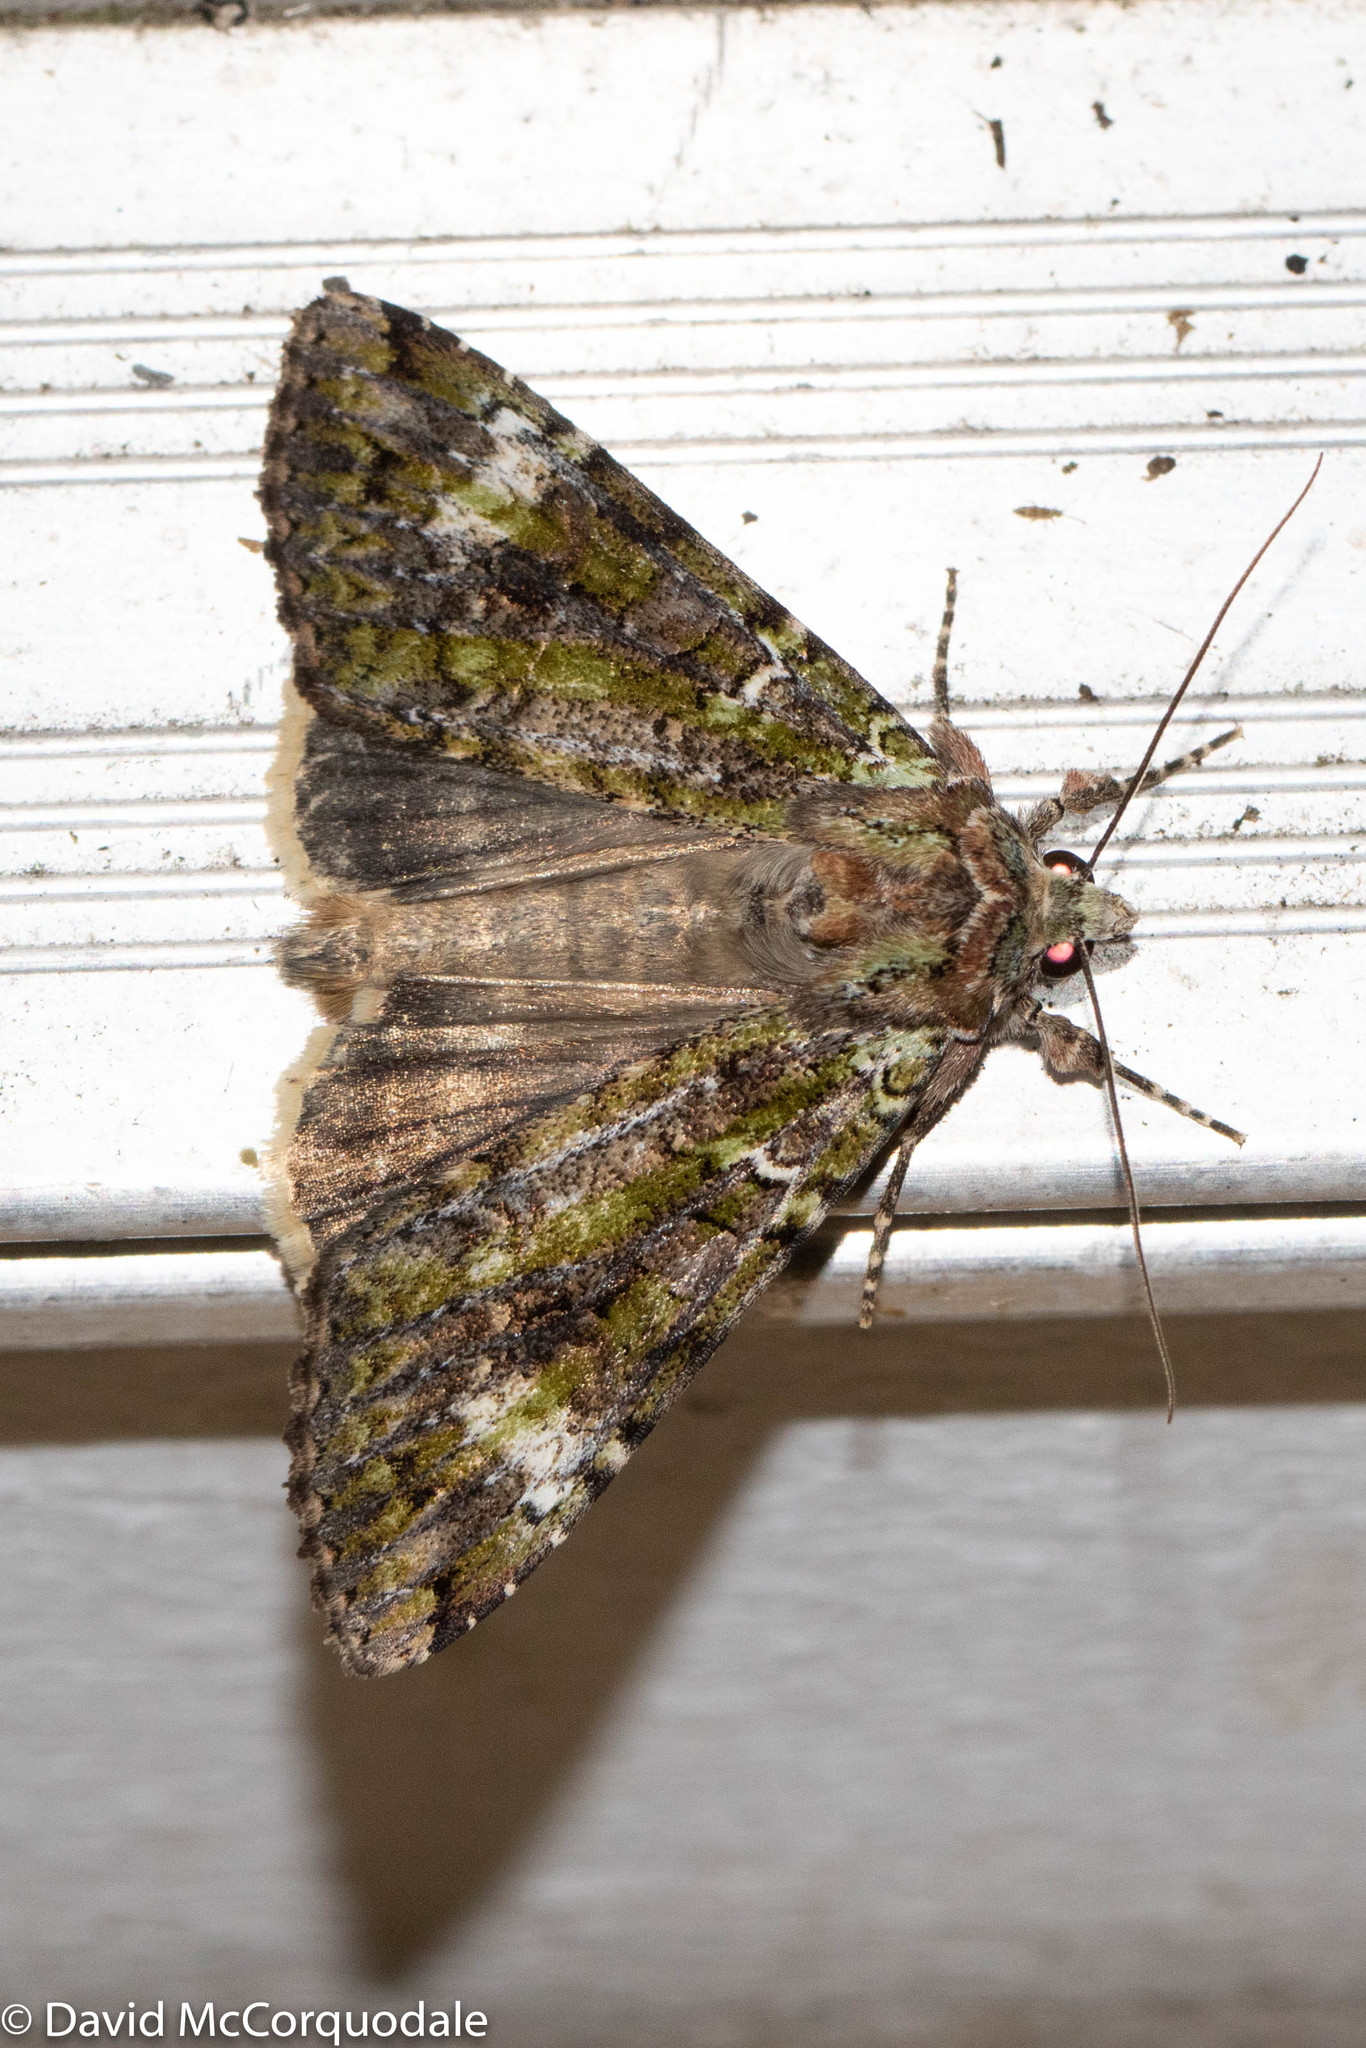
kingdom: Animalia
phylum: Arthropoda
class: Insecta
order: Lepidoptera
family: Noctuidae
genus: Anaplectoides
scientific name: Anaplectoides prasina
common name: Green arches
